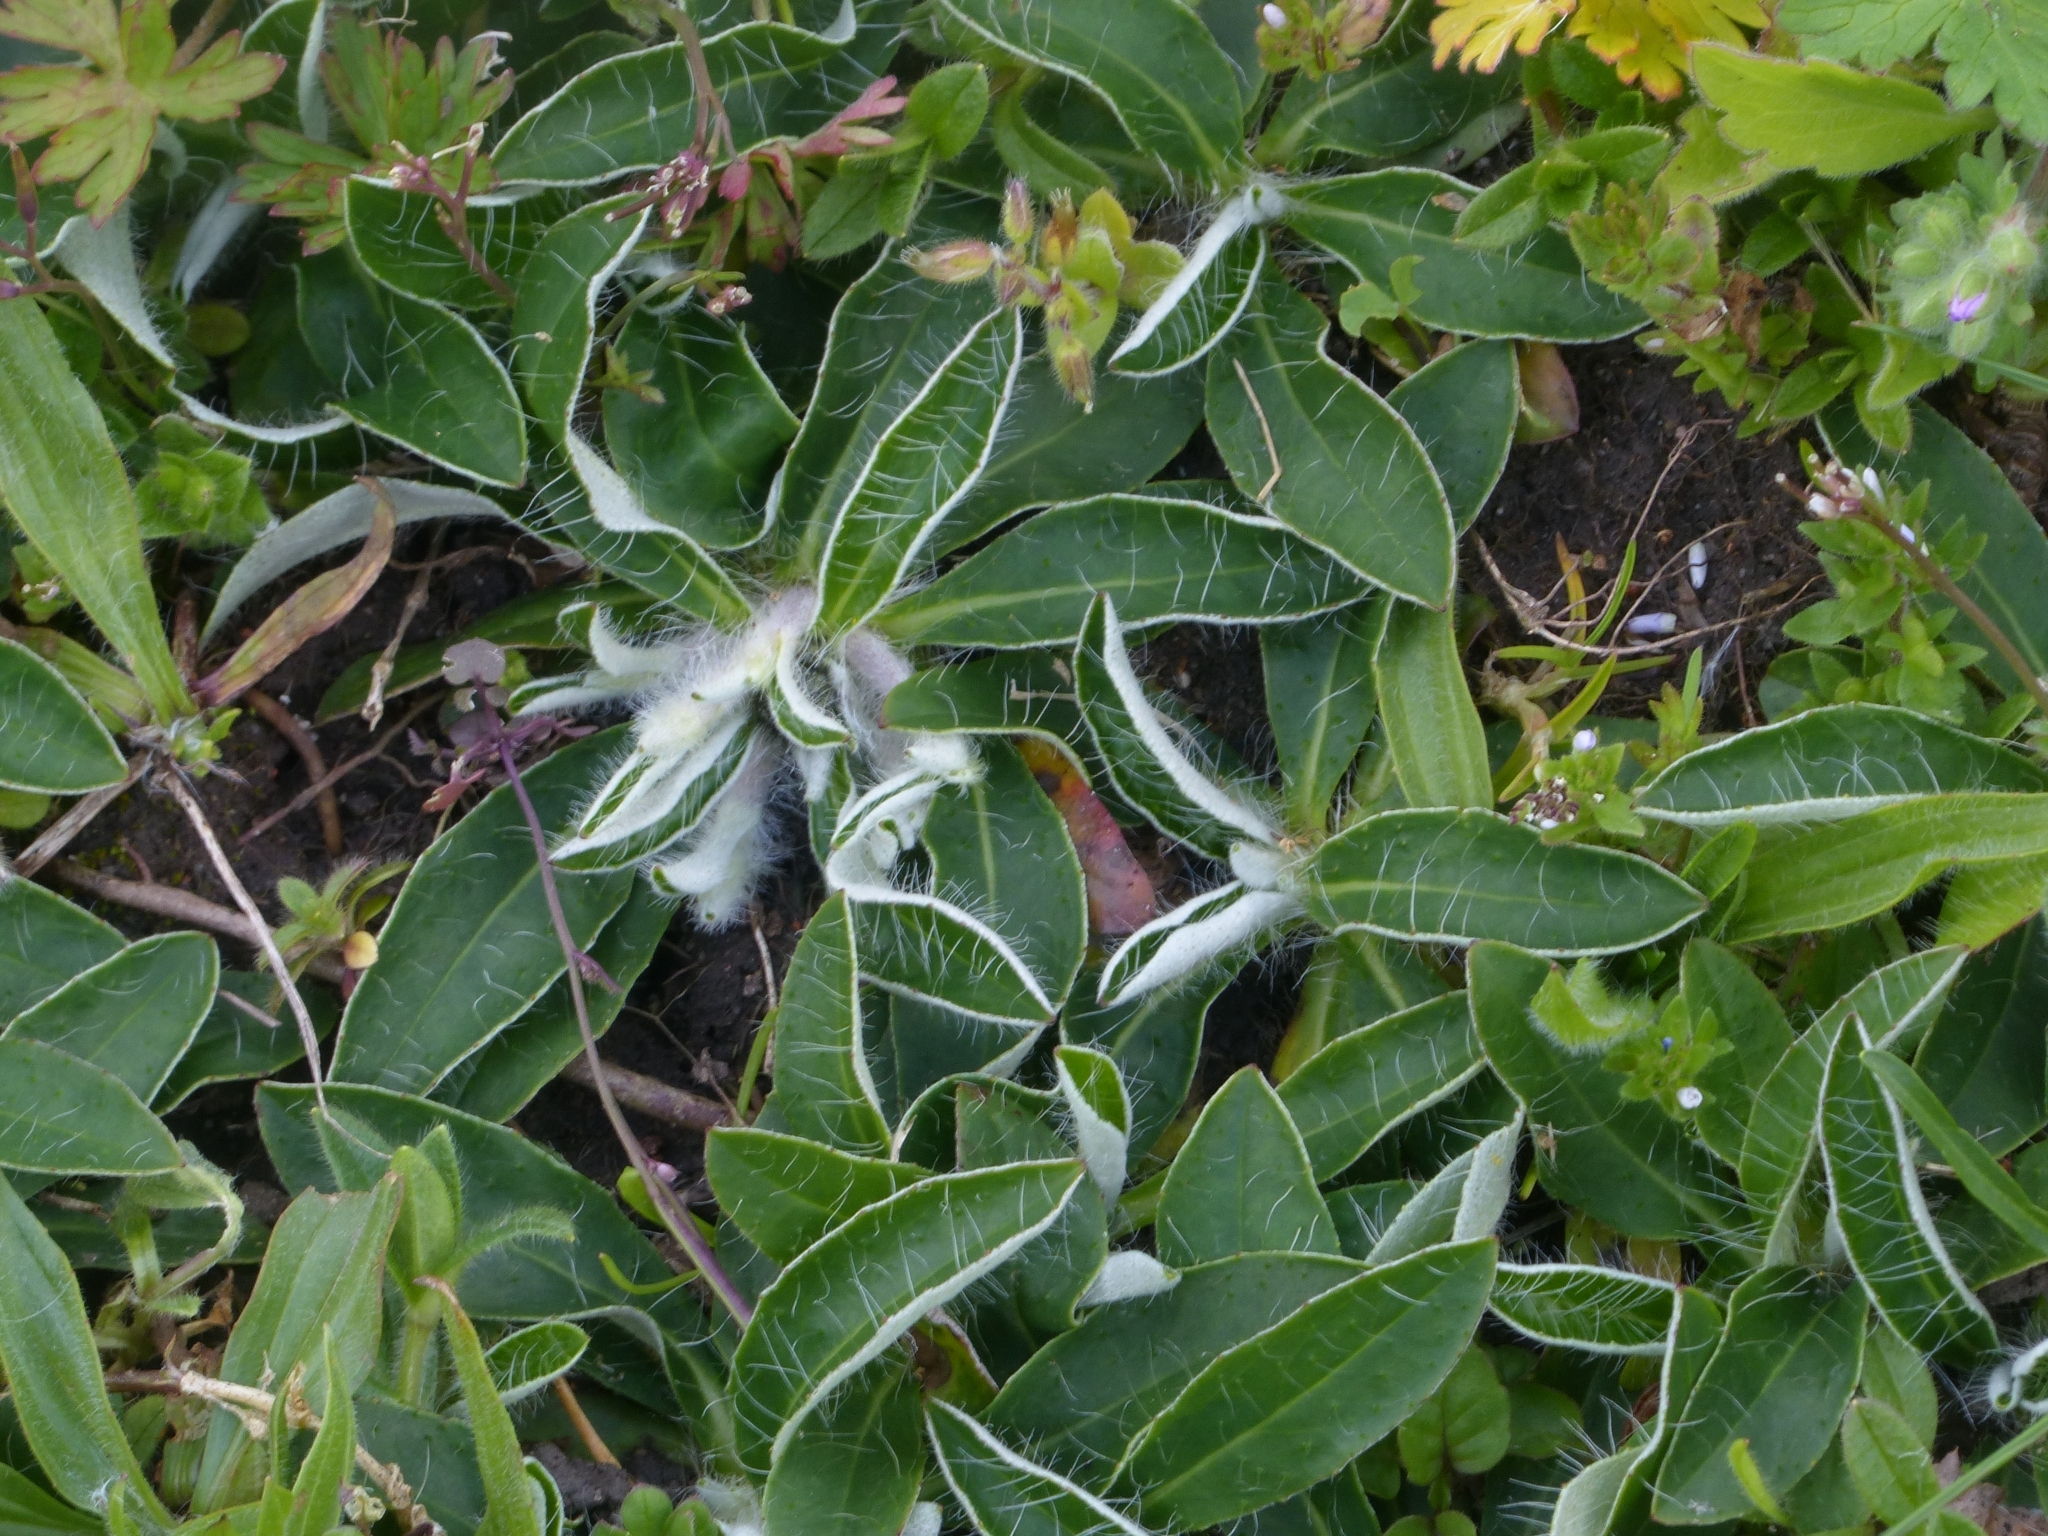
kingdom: Plantae
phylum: Tracheophyta
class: Magnoliopsida
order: Asterales
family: Asteraceae
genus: Pilosella
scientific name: Pilosella officinarum
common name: Mouse-ear hawkweed
